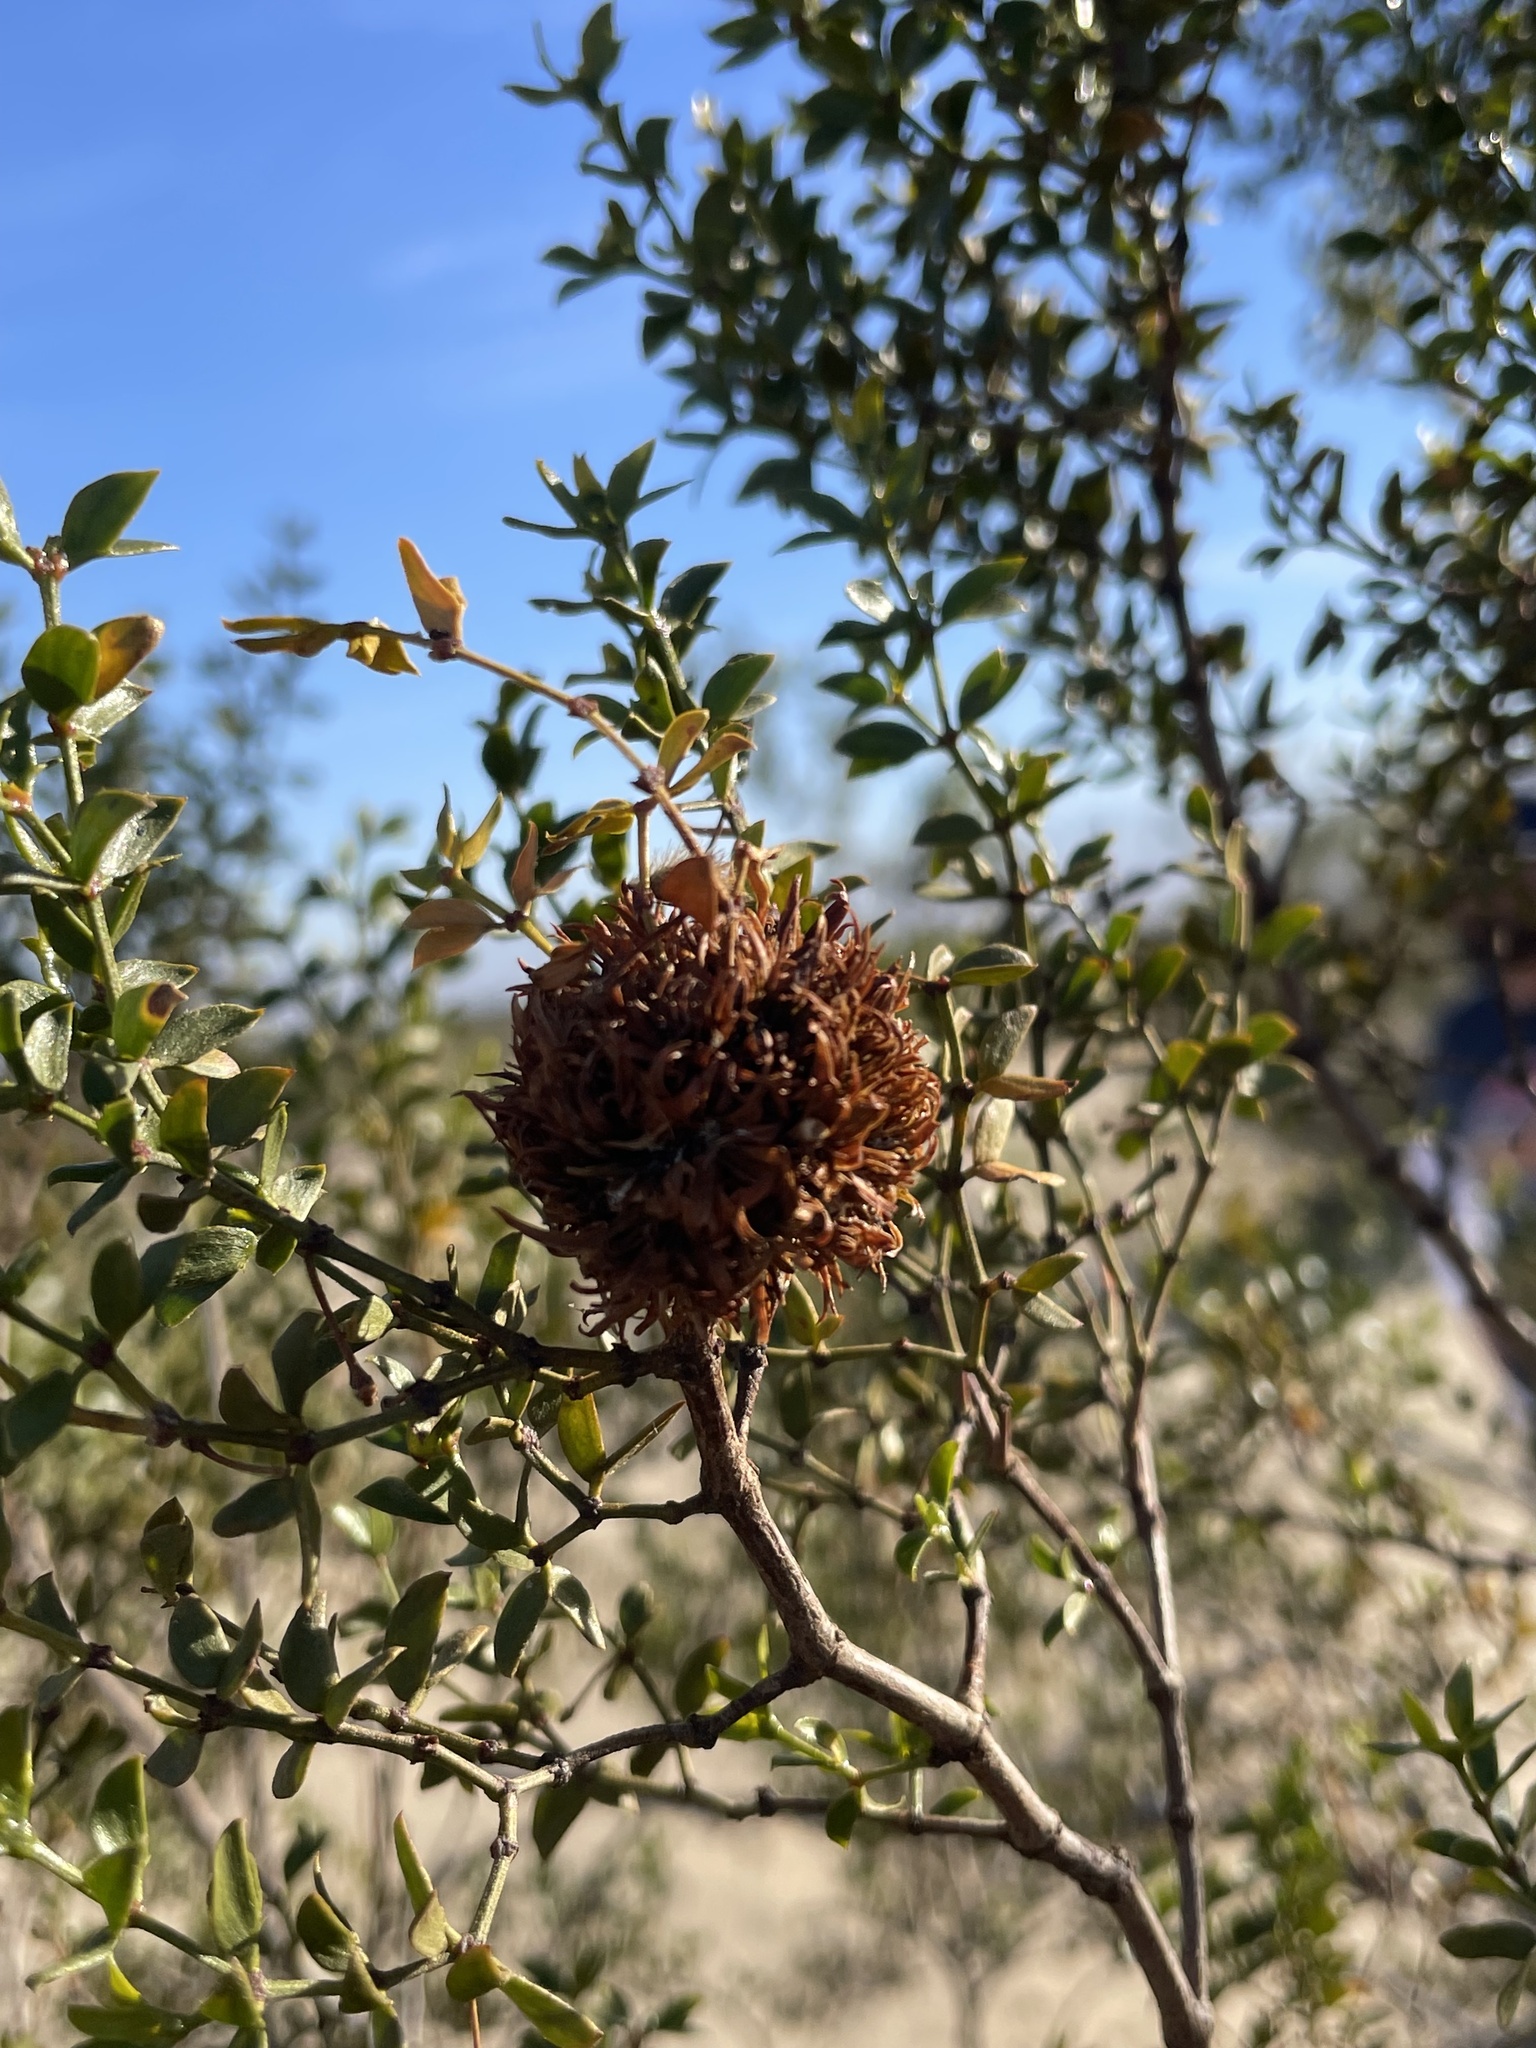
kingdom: Animalia
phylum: Arthropoda
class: Insecta
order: Diptera
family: Cecidomyiidae
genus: Asphondylia
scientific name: Asphondylia auripila
